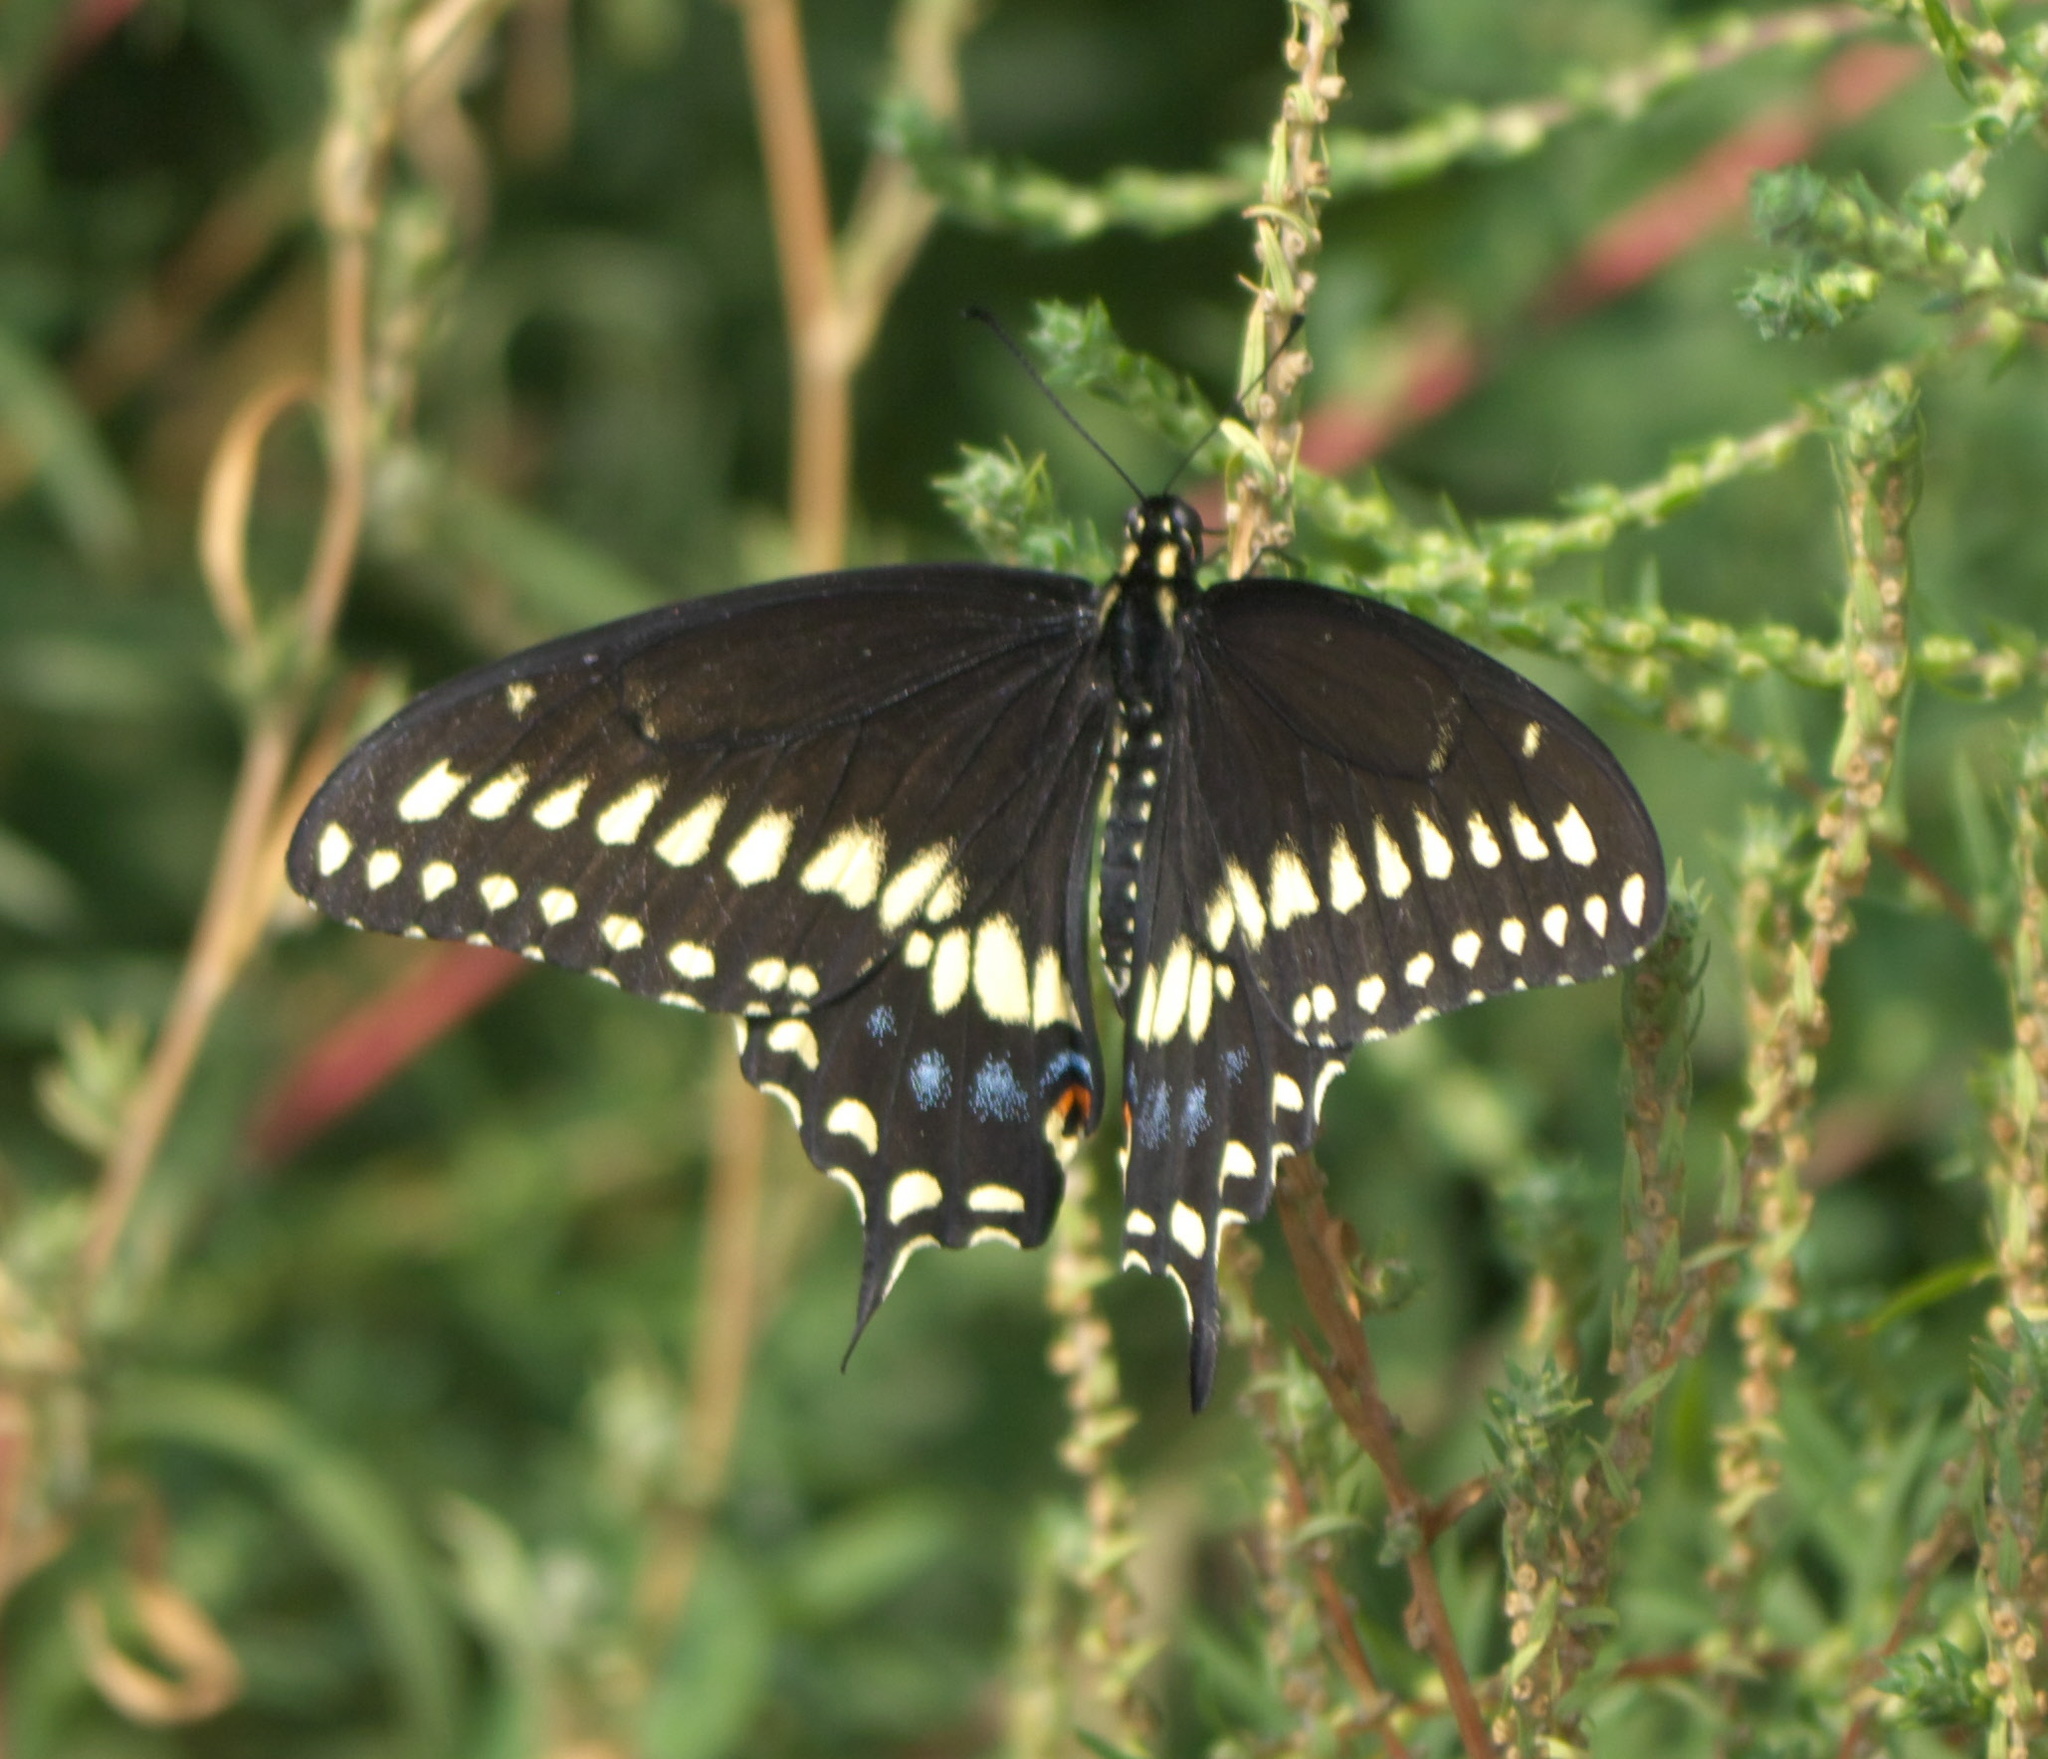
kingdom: Animalia
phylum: Arthropoda
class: Insecta
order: Lepidoptera
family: Papilionidae
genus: Papilio
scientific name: Papilio polyxenes
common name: Black swallowtail
